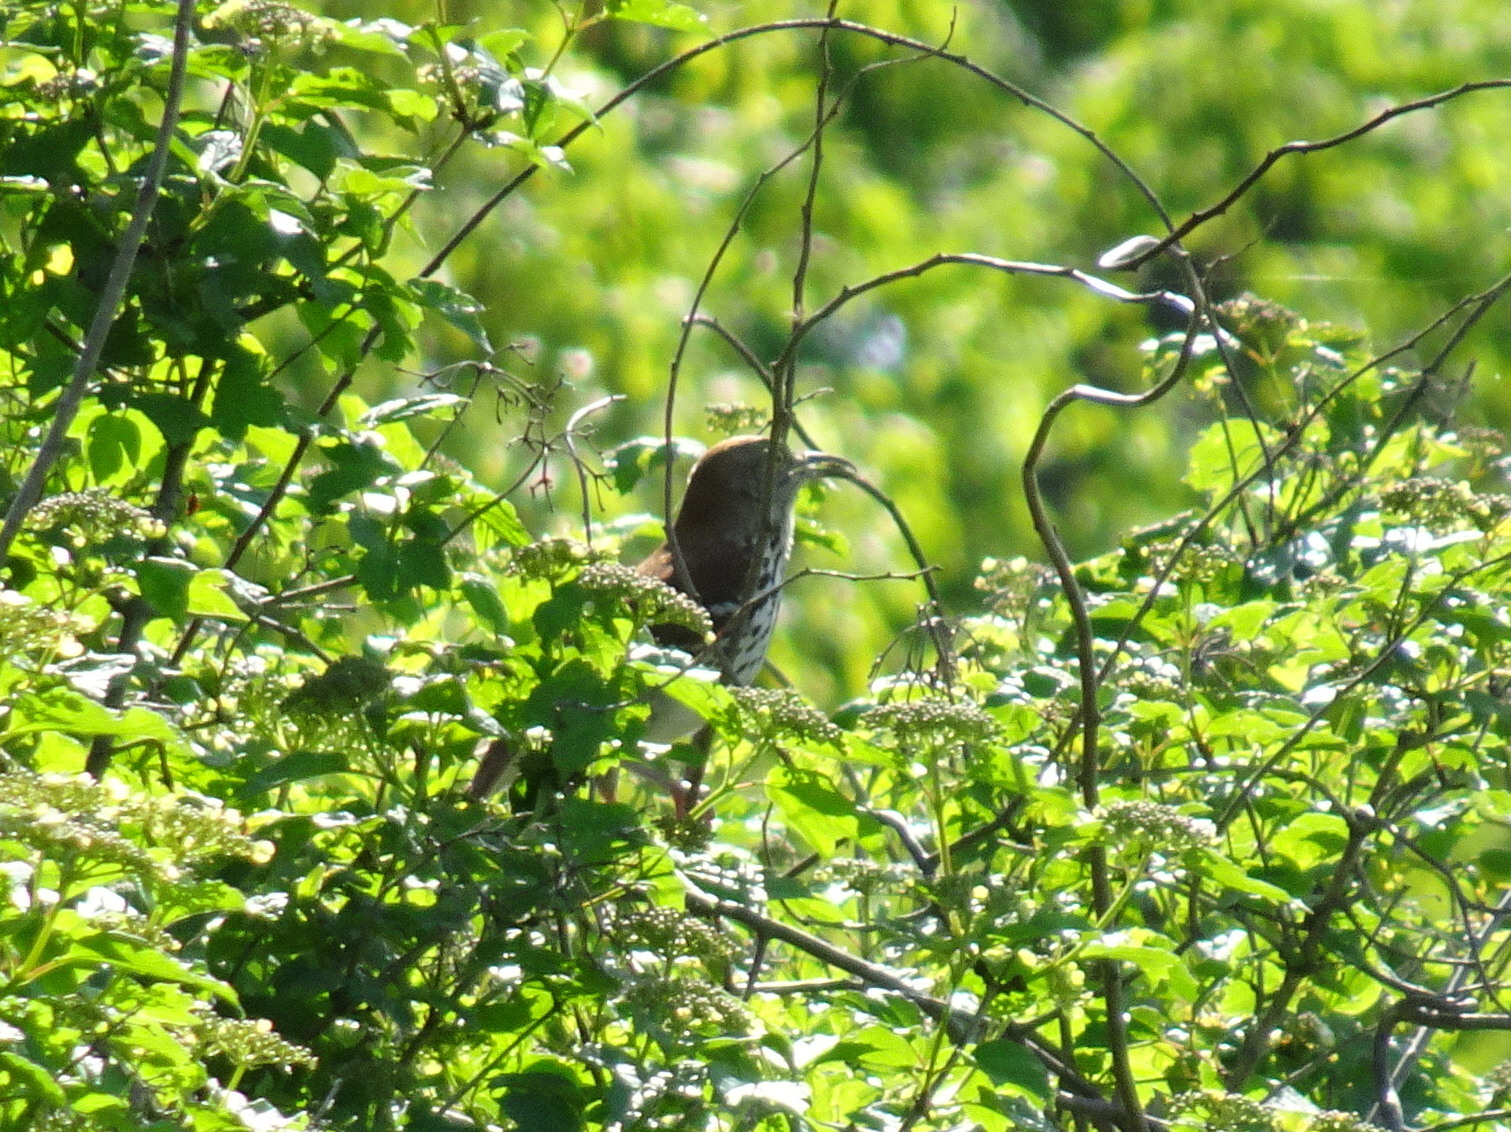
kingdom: Animalia
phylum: Chordata
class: Aves
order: Passeriformes
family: Mimidae
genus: Toxostoma
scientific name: Toxostoma rufum
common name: Brown thrasher
